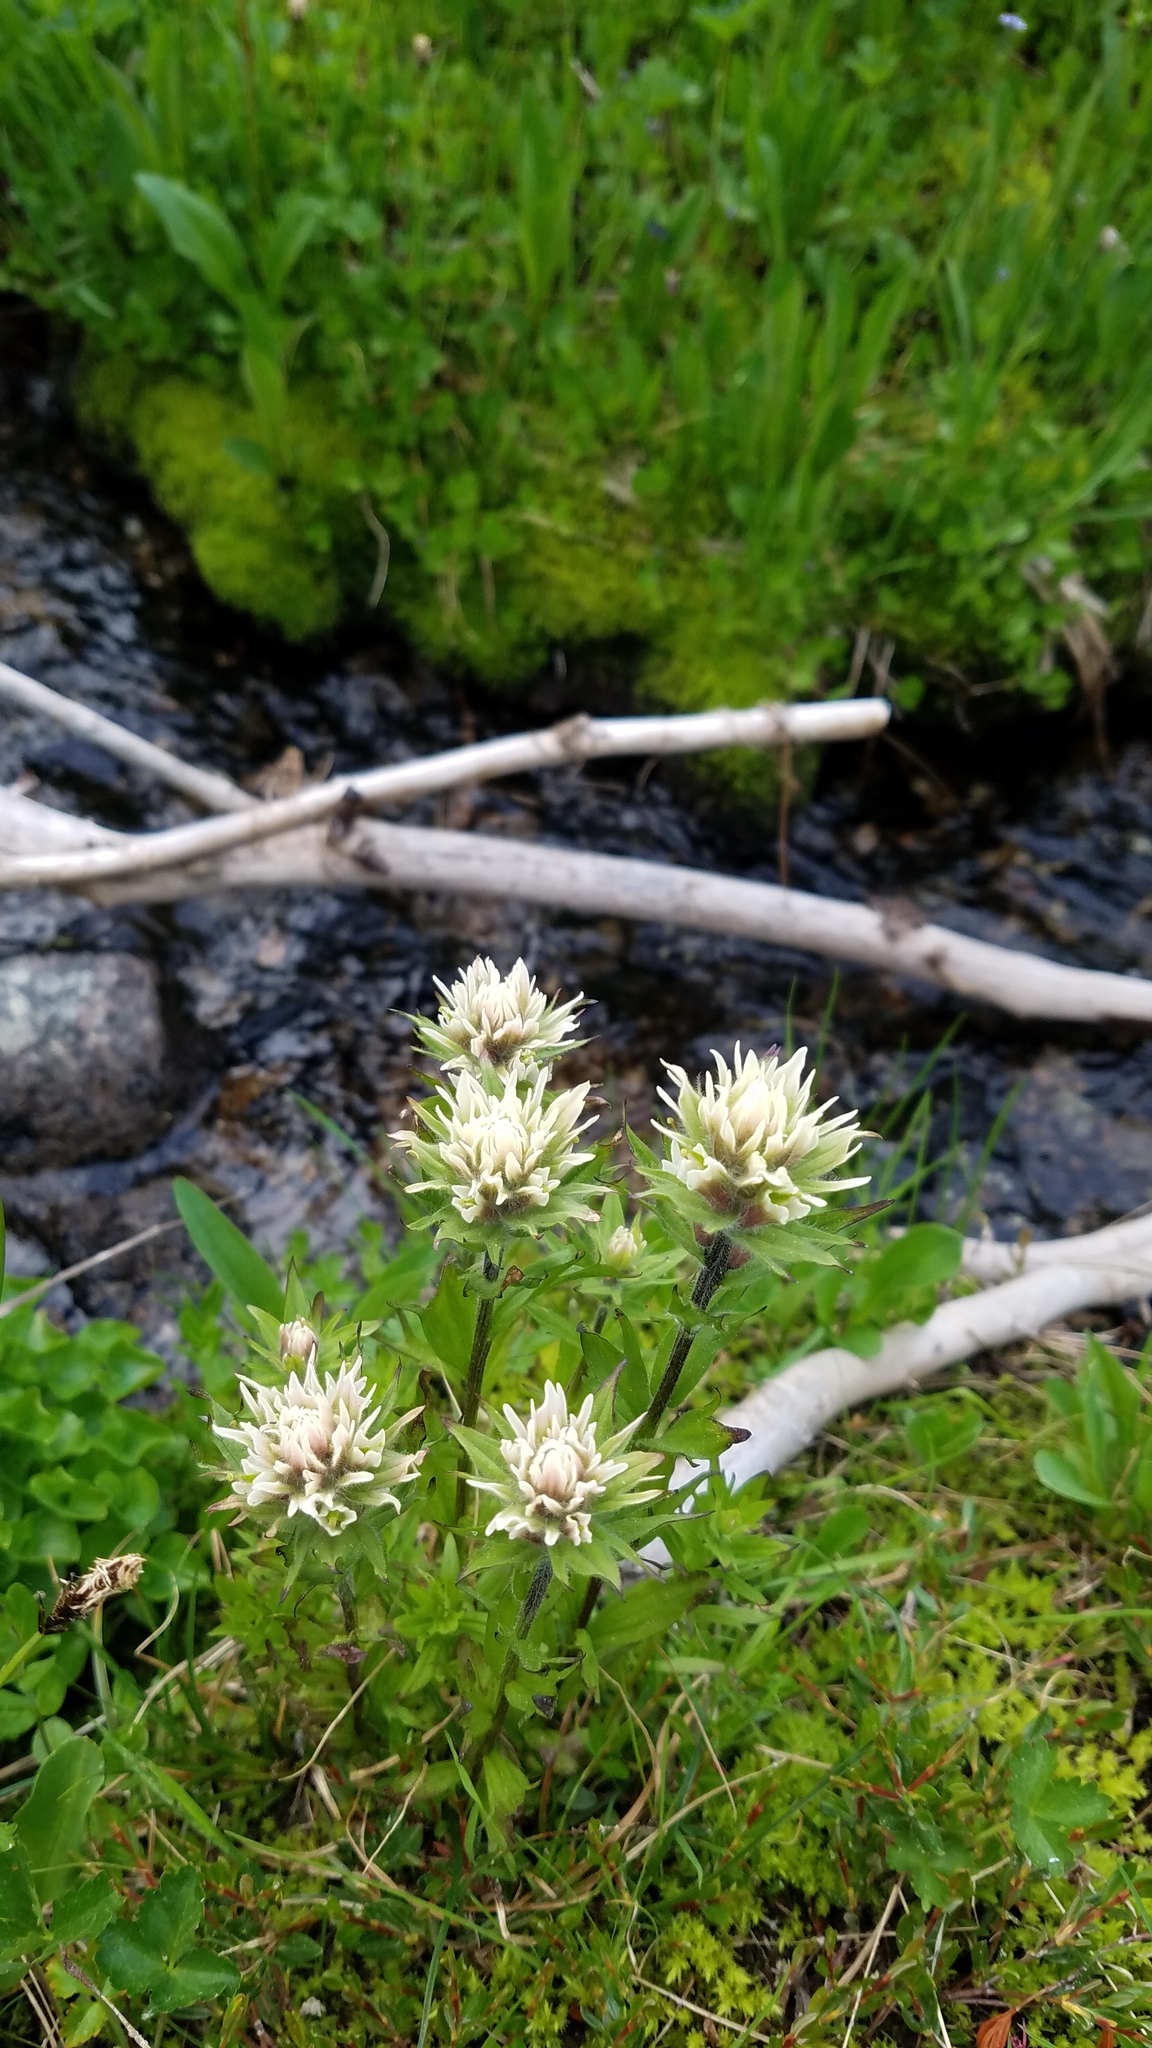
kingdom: Plantae
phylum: Tracheophyta
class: Magnoliopsida
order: Lamiales
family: Orobanchaceae
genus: Castilleja
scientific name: Castilleja parviflora
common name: Mountain paintbrush
